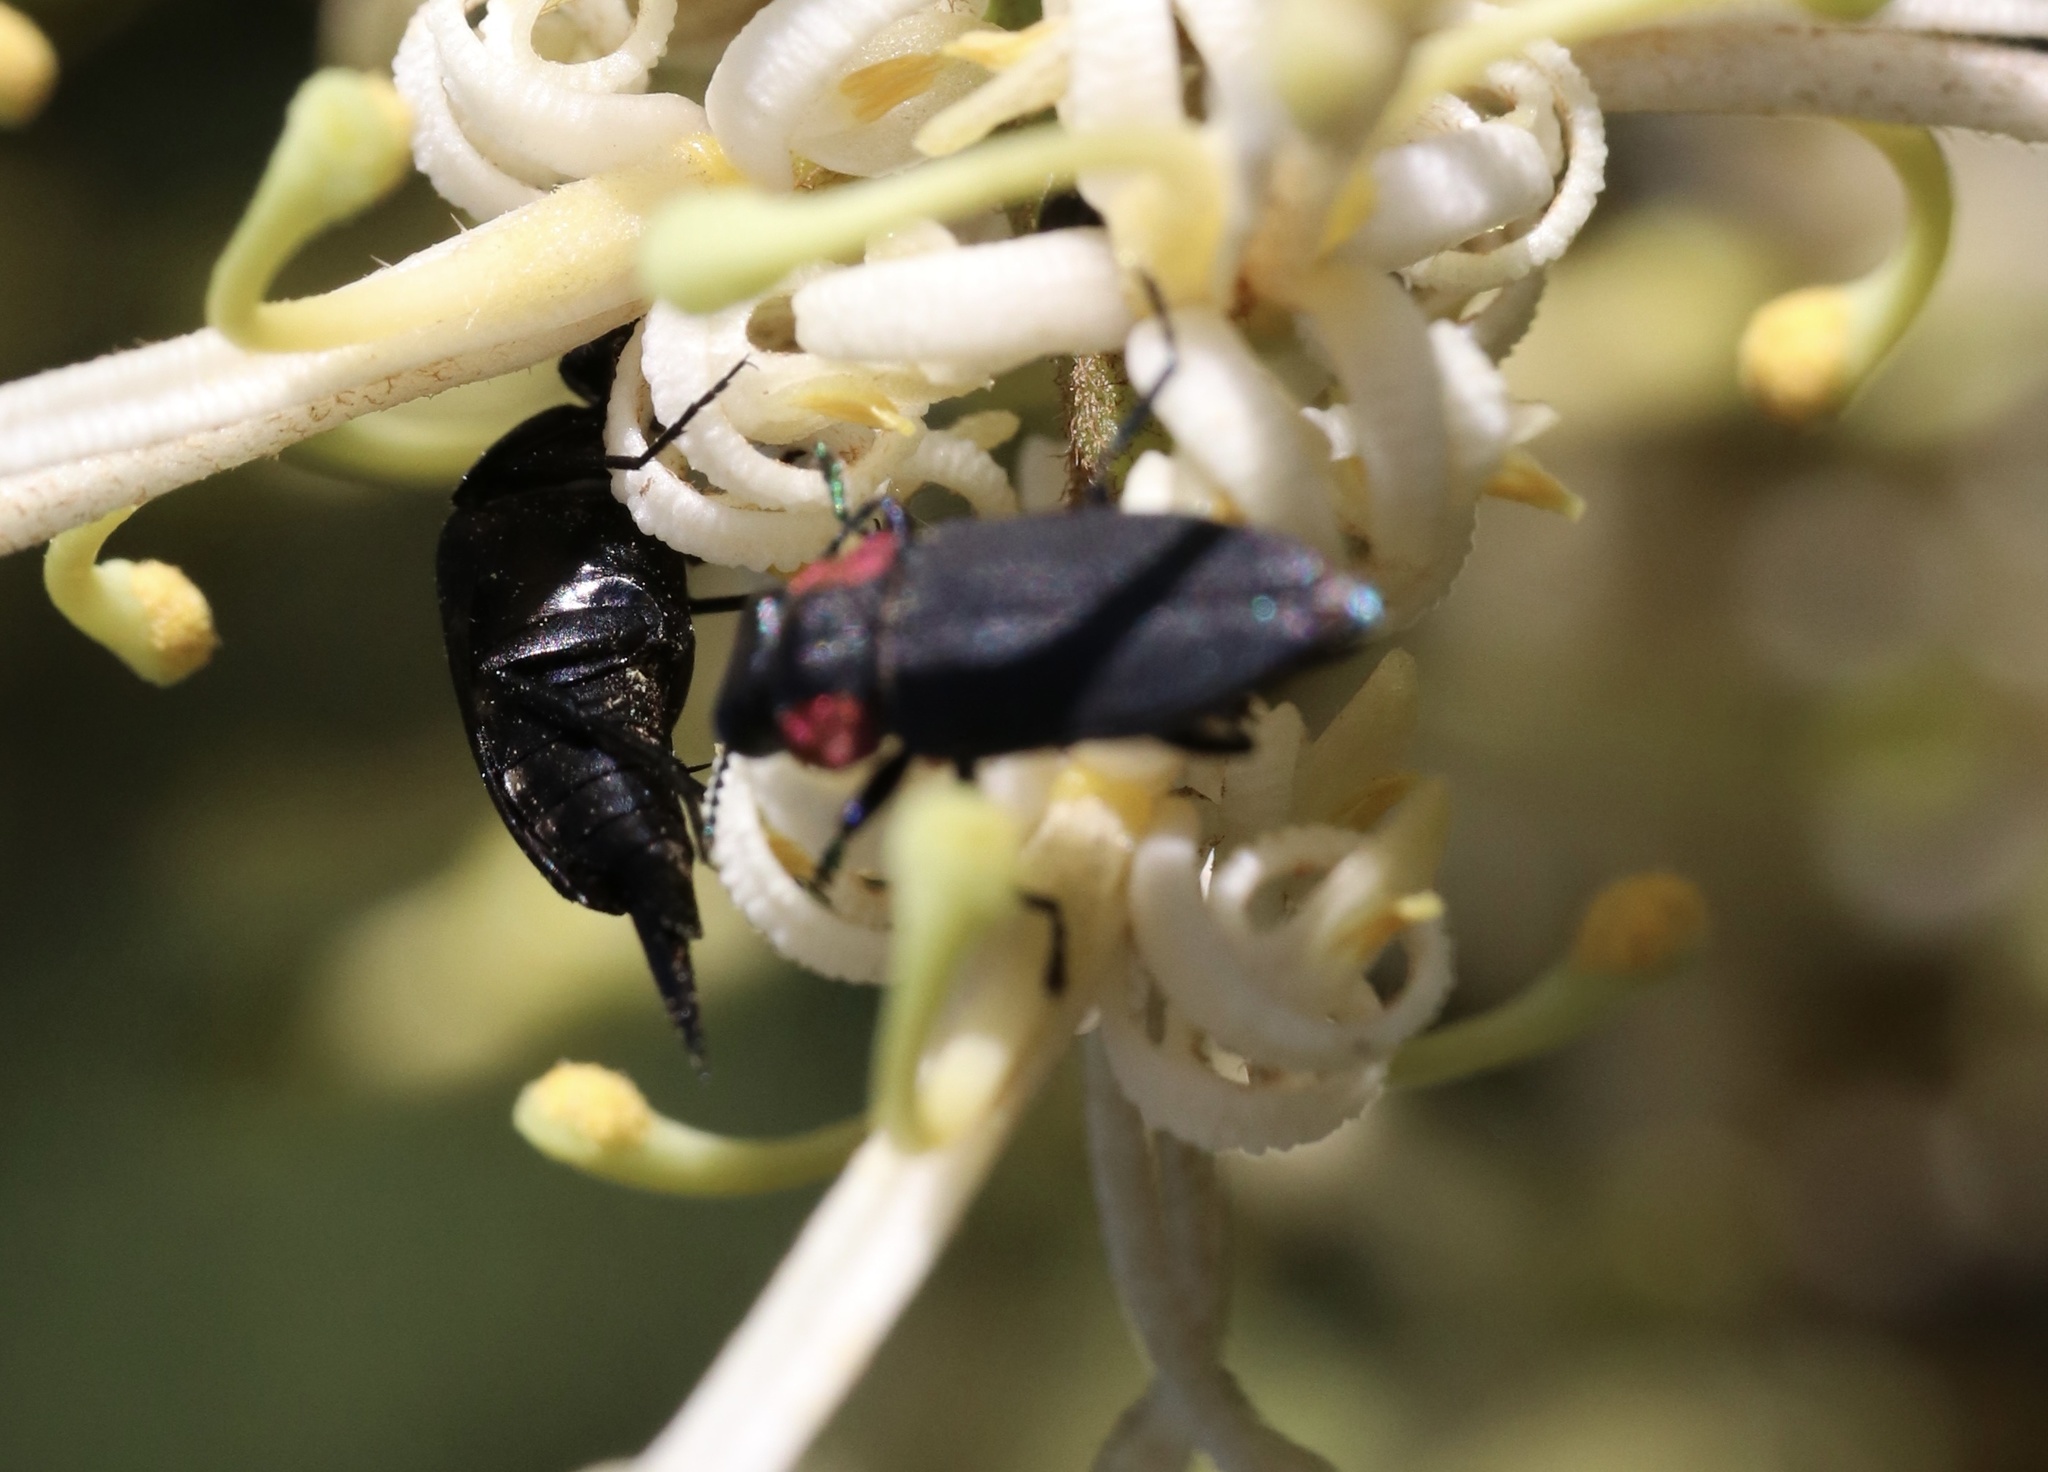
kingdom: Animalia
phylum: Arthropoda
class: Insecta
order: Coleoptera
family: Buprestidae
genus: Romanophora
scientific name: Romanophora verecunda
